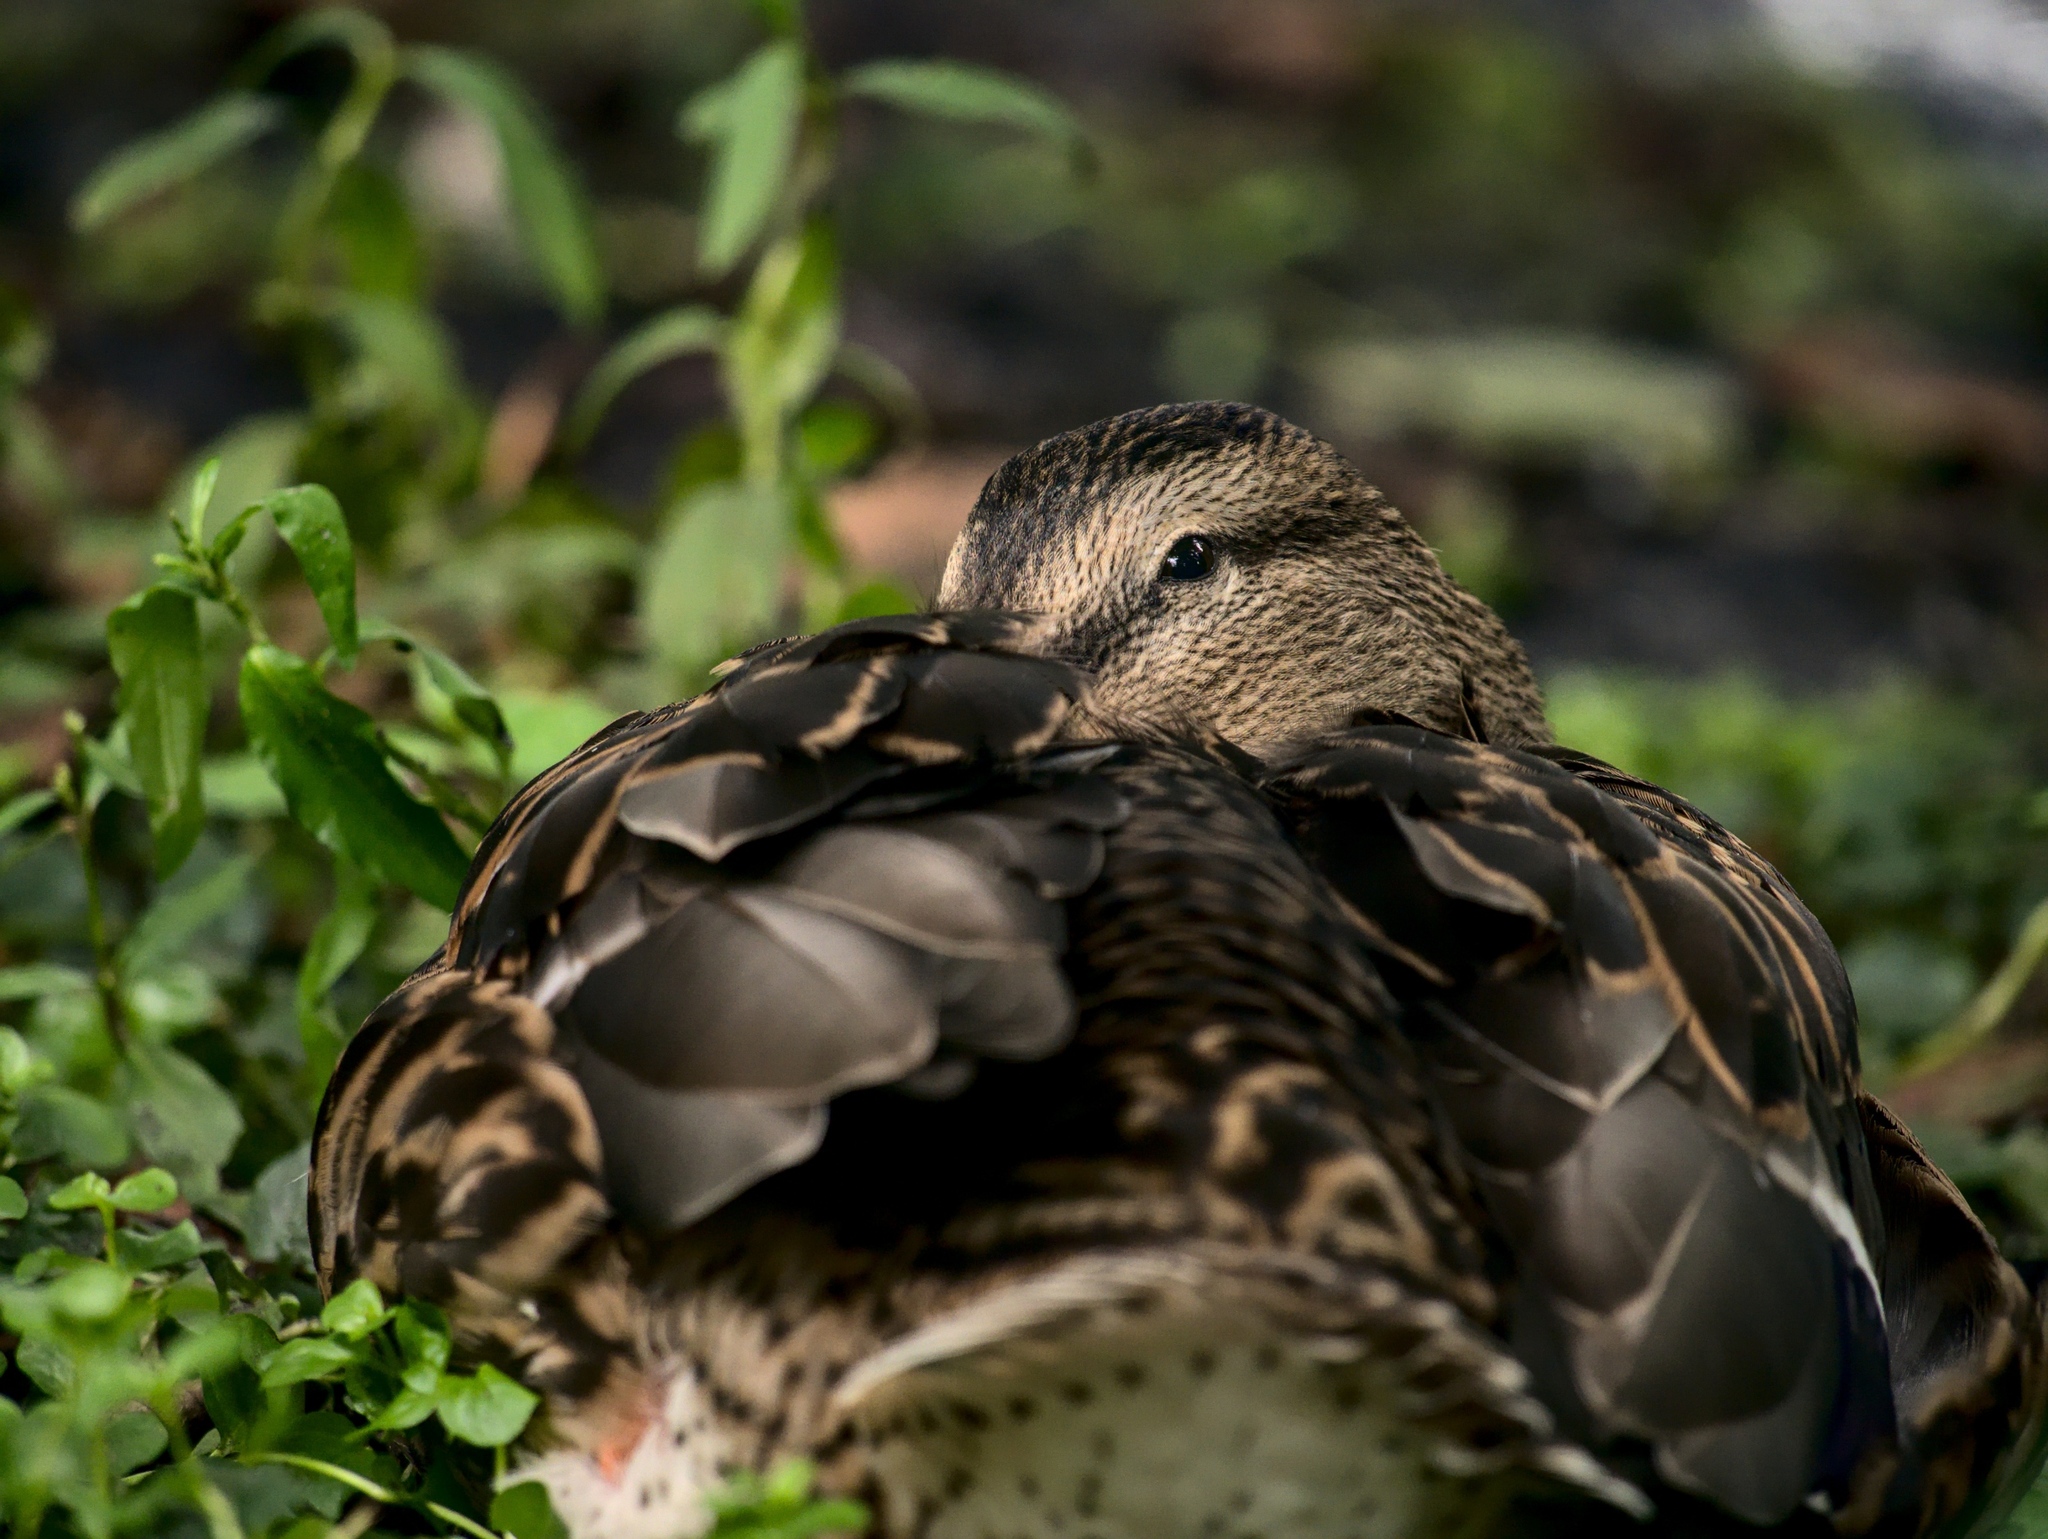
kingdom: Animalia
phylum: Chordata
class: Aves
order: Anseriformes
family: Anatidae
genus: Anas
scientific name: Anas platyrhynchos
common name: Mallard
